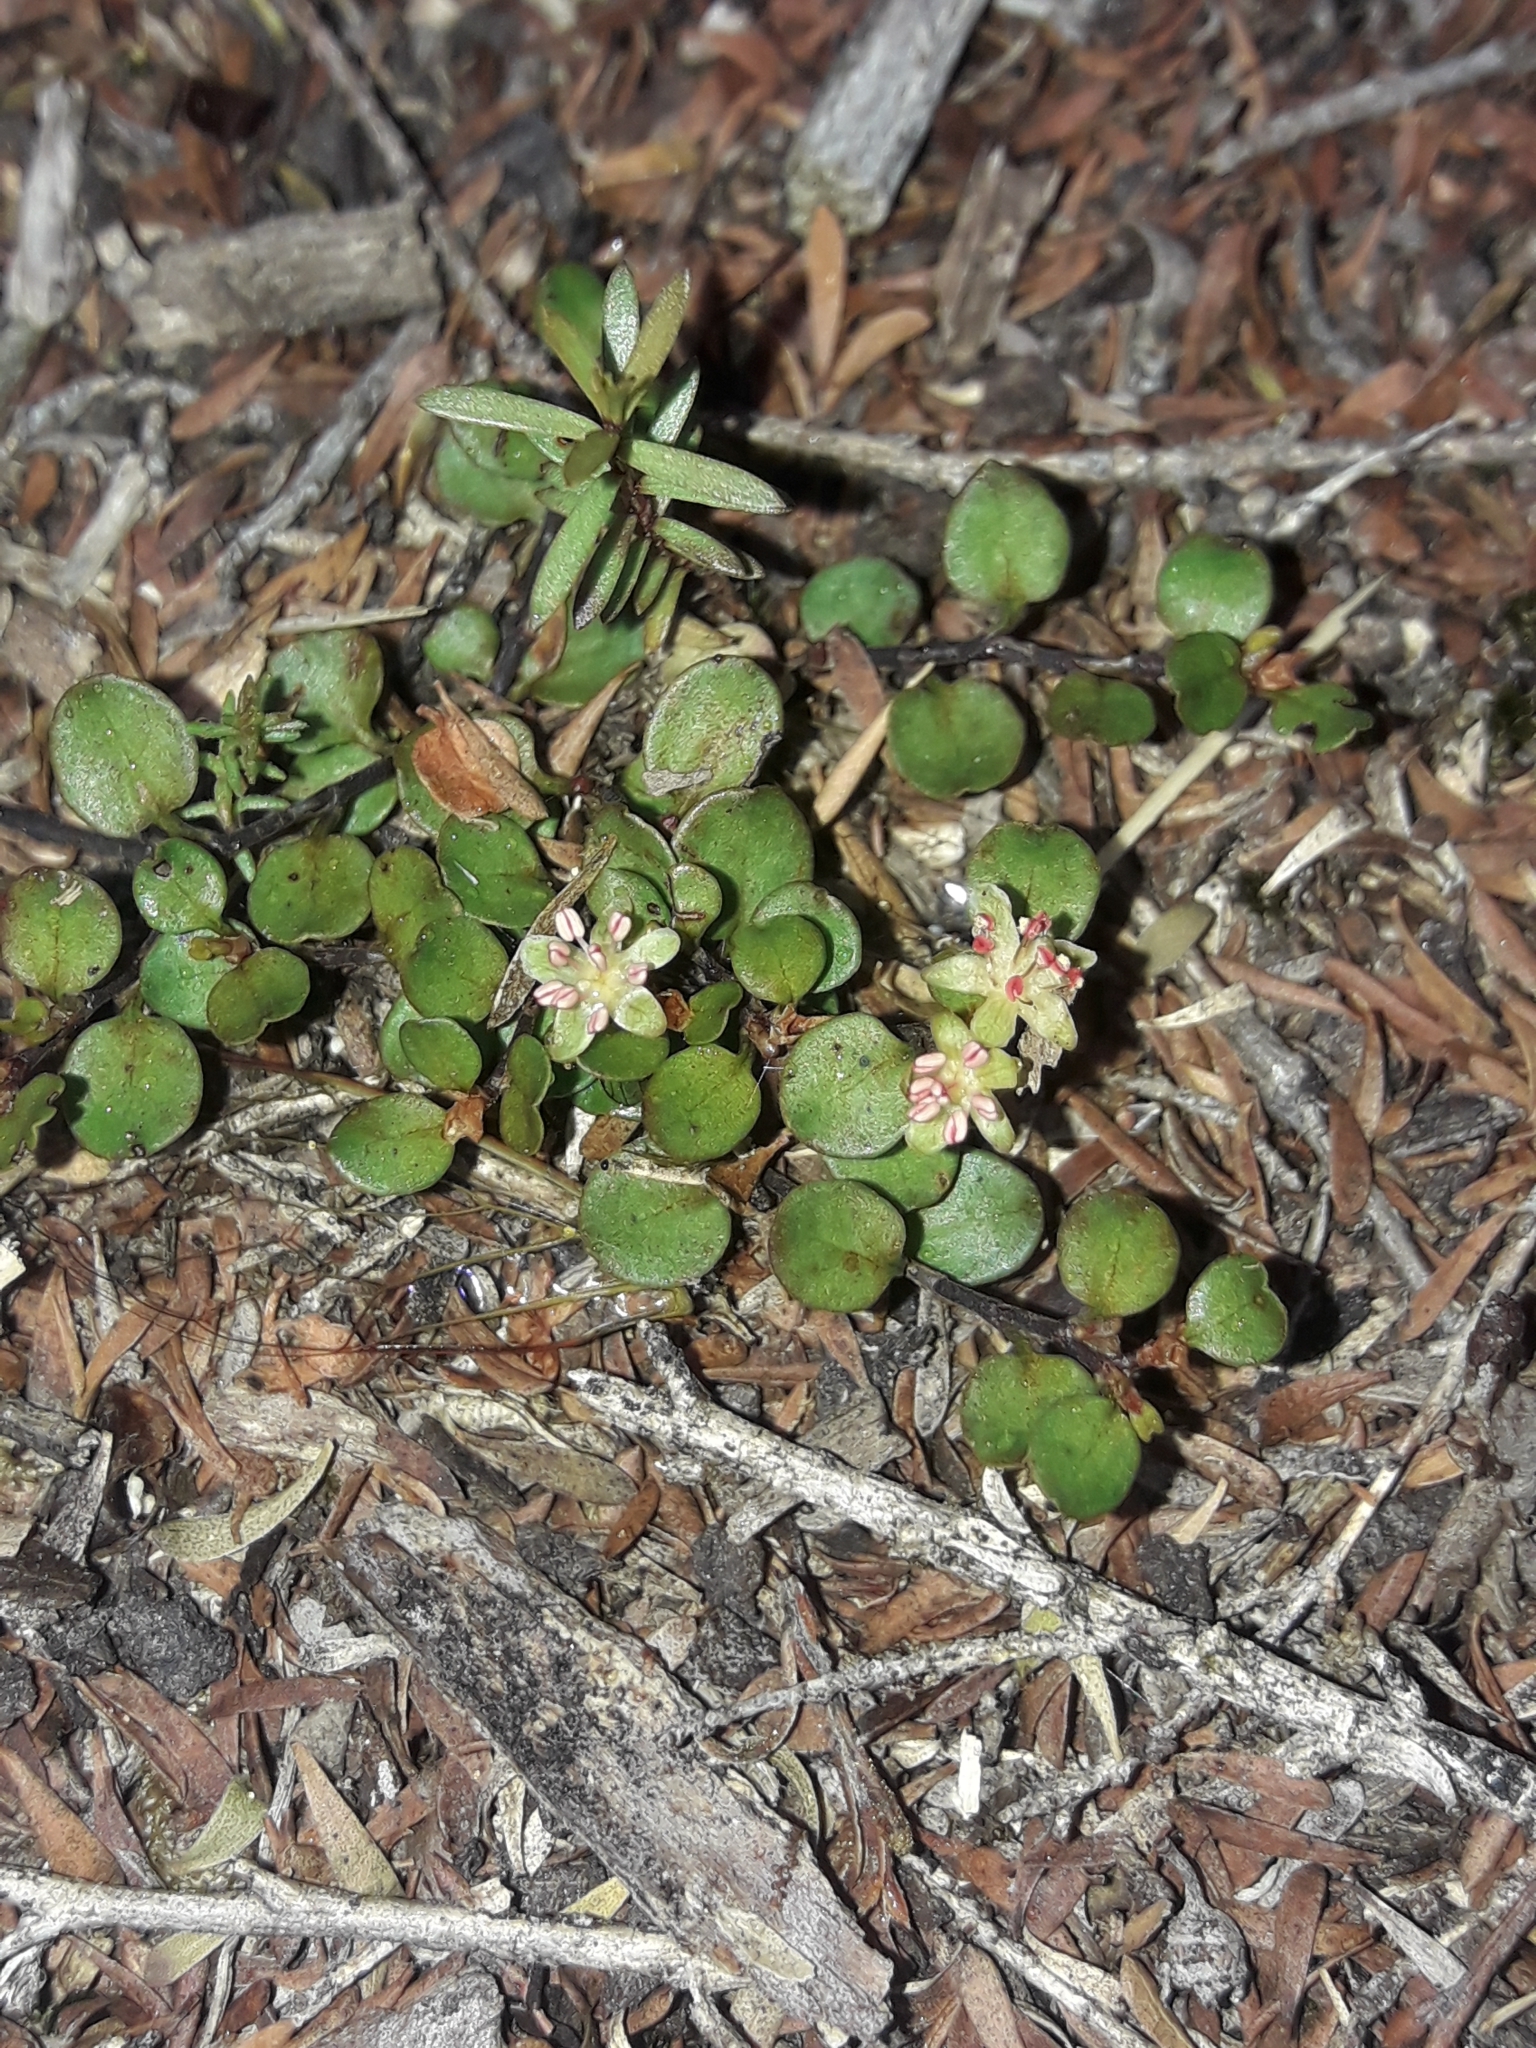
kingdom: Plantae
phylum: Tracheophyta
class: Magnoliopsida
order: Caryophyllales
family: Polygonaceae
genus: Muehlenbeckia
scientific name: Muehlenbeckia axillaris
